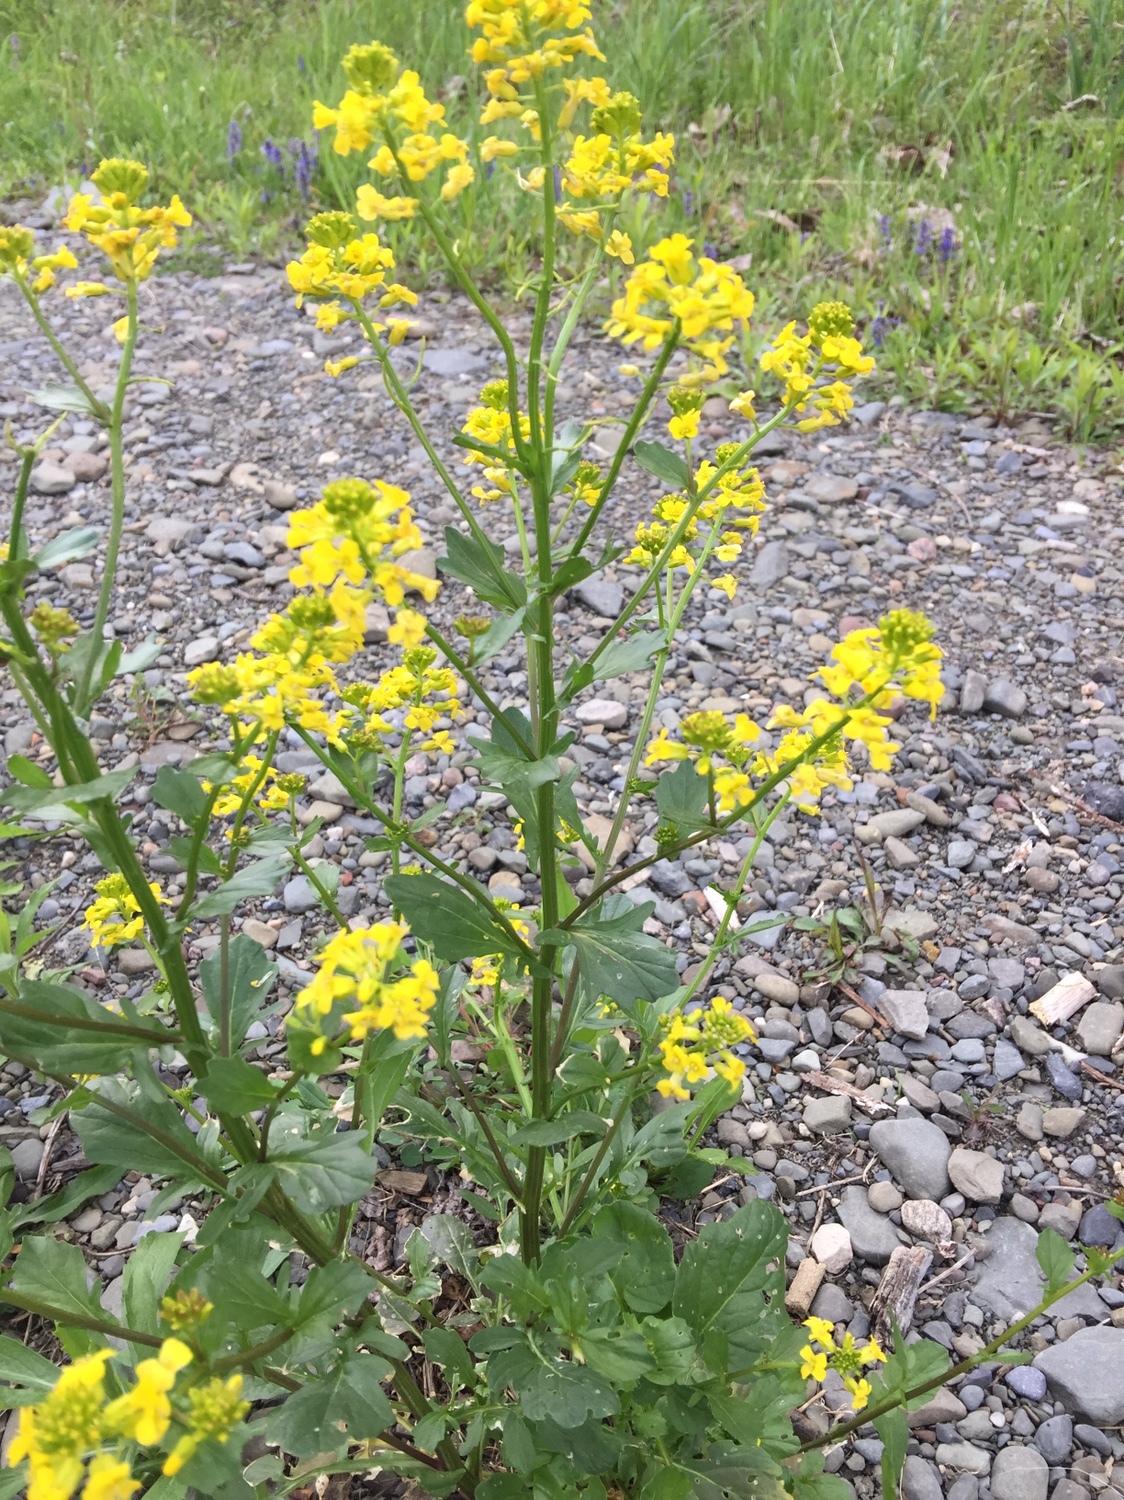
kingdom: Plantae
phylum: Tracheophyta
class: Magnoliopsida
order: Brassicales
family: Brassicaceae
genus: Barbarea
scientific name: Barbarea vulgaris
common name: Cressy-greens
